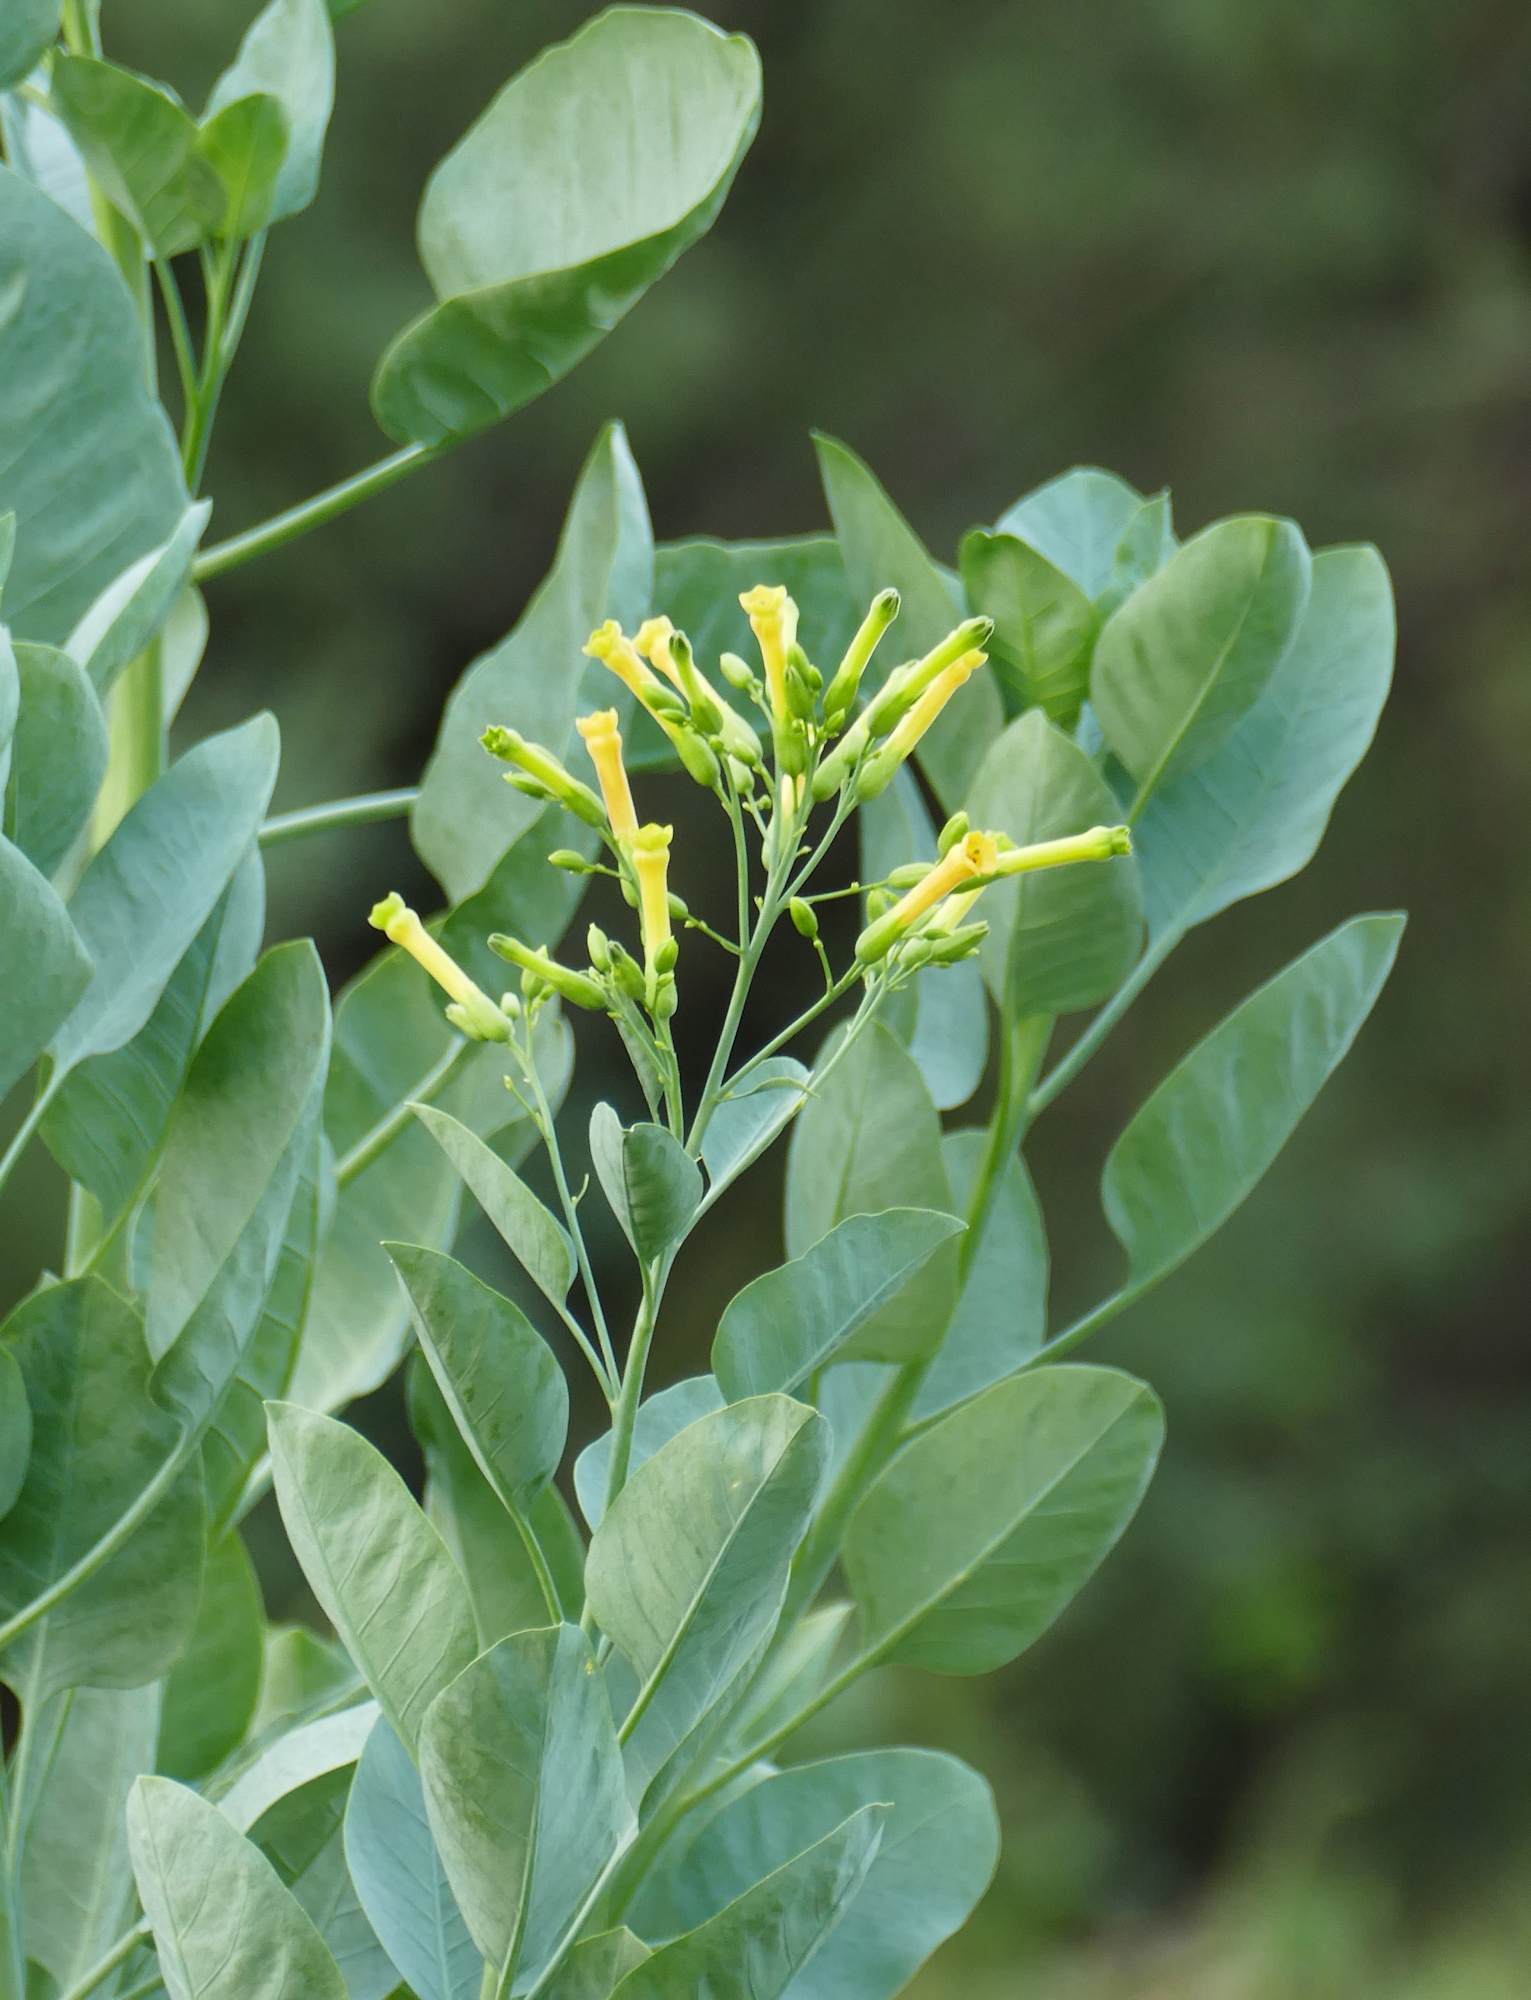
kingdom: Plantae
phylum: Tracheophyta
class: Magnoliopsida
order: Solanales
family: Solanaceae
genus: Nicotiana
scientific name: Nicotiana glauca
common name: Tree tobacco
